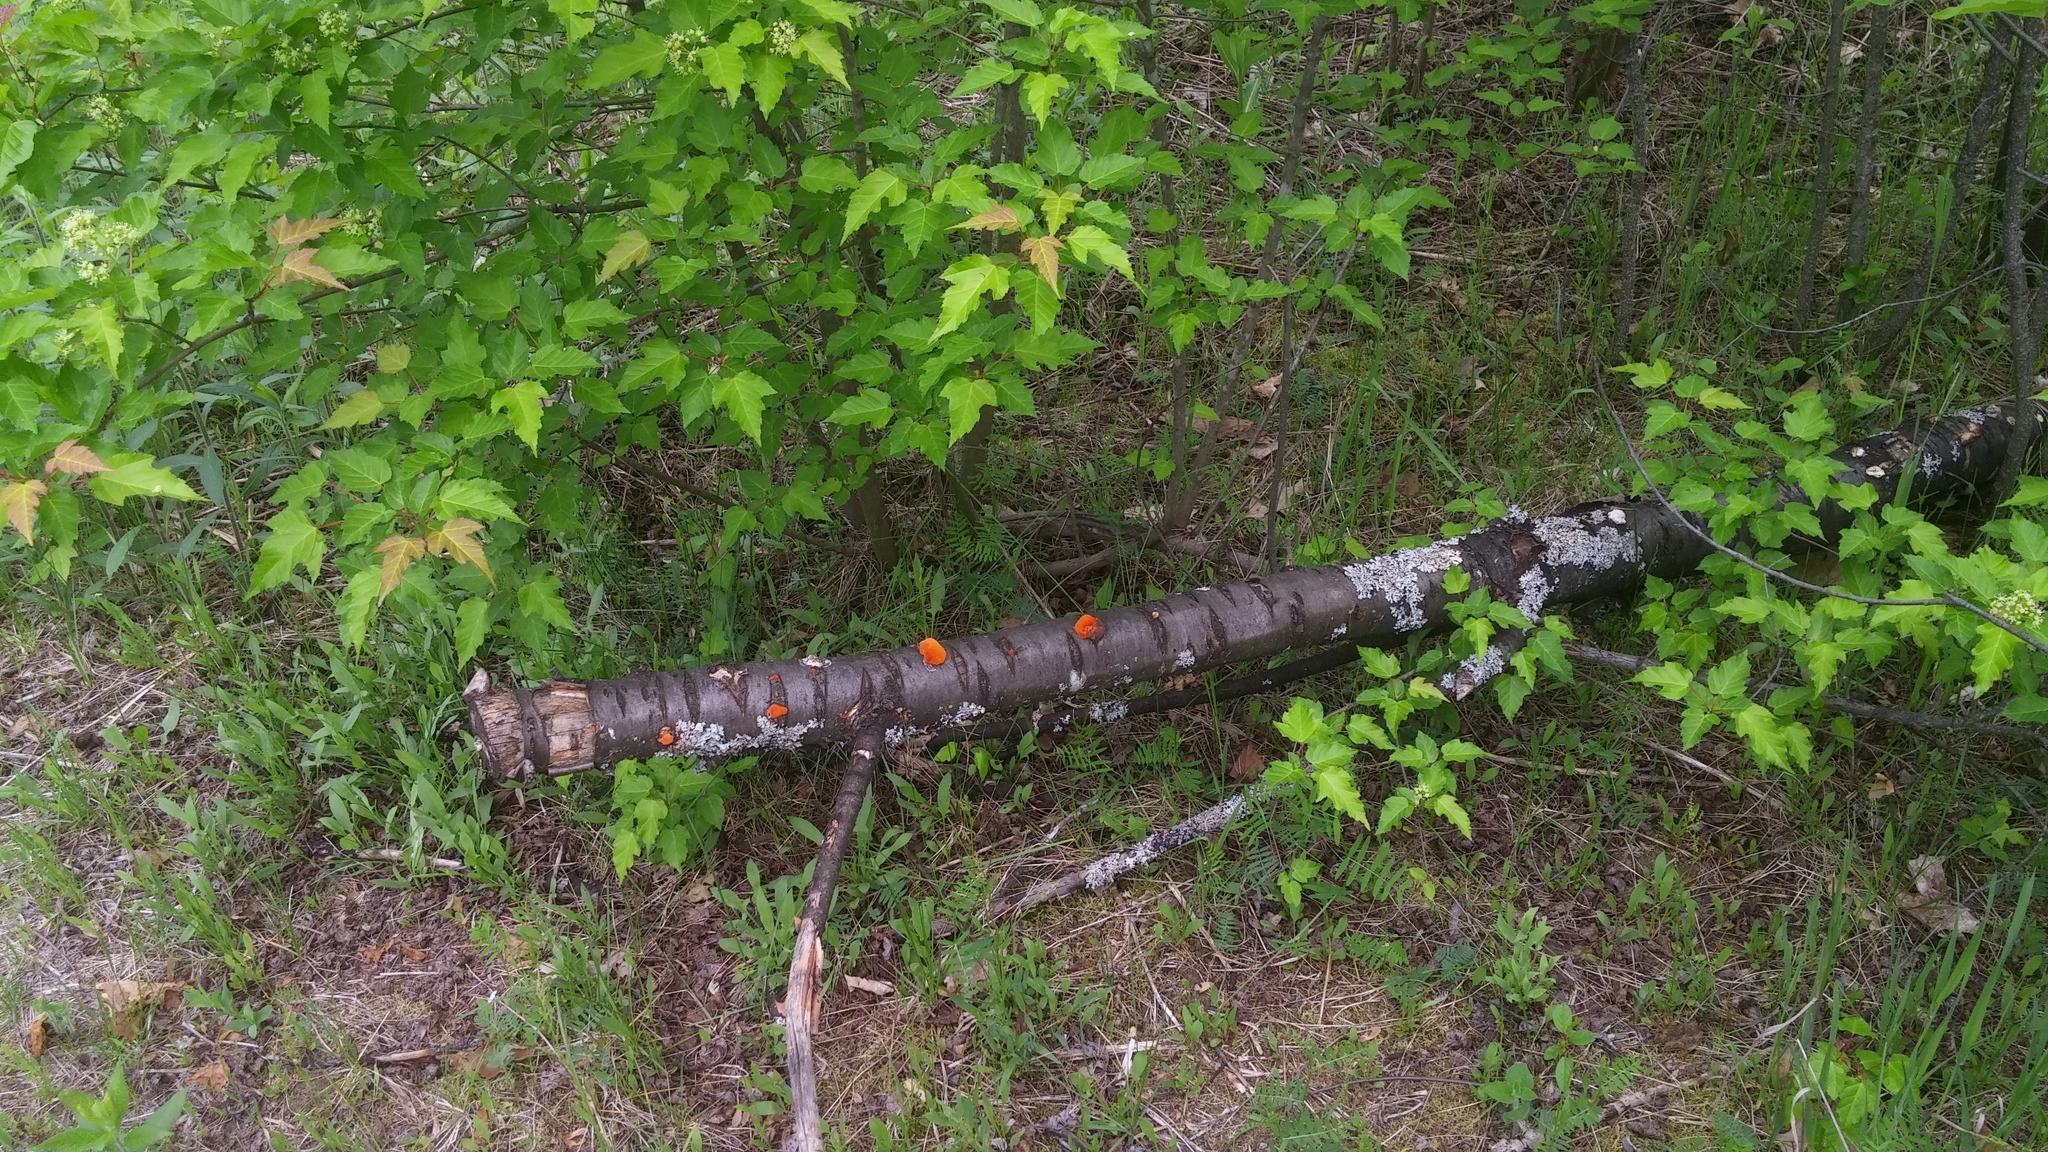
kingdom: Fungi
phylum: Basidiomycota
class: Agaricomycetes
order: Polyporales
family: Polyporaceae
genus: Trametes
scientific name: Trametes cinnabarina
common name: Northern cinnabar polypore
